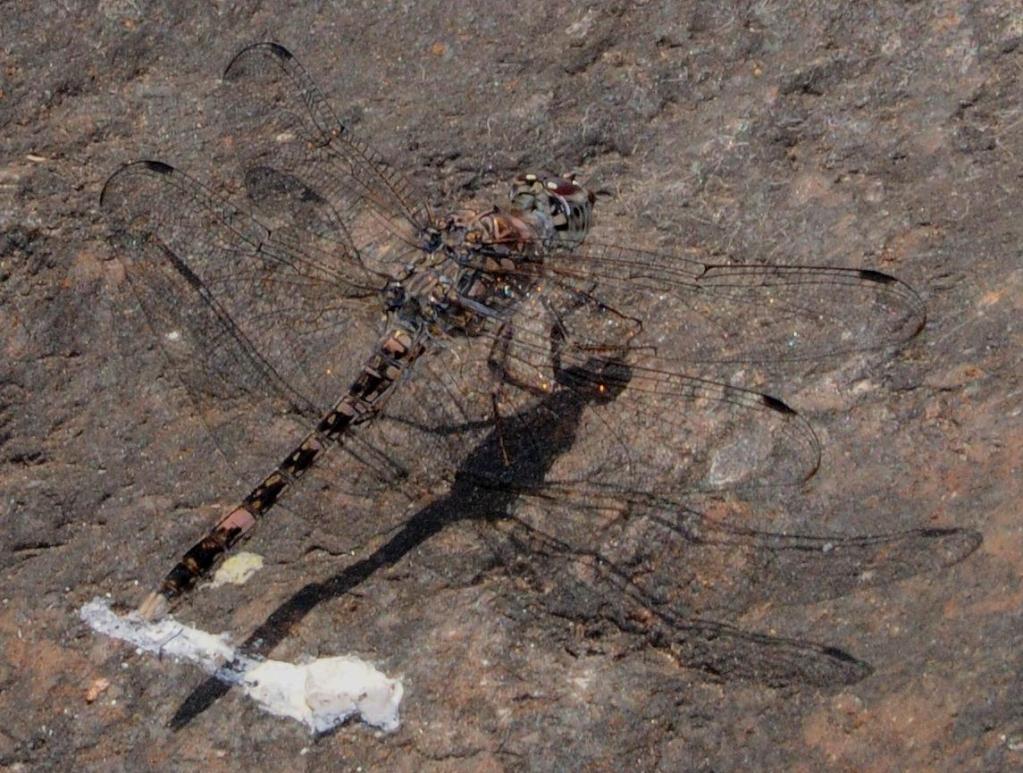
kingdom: Animalia
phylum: Arthropoda
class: Insecta
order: Odonata
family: Libellulidae
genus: Bradinopyga
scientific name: Bradinopyga cornuta
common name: Flecked wall-skimmer
